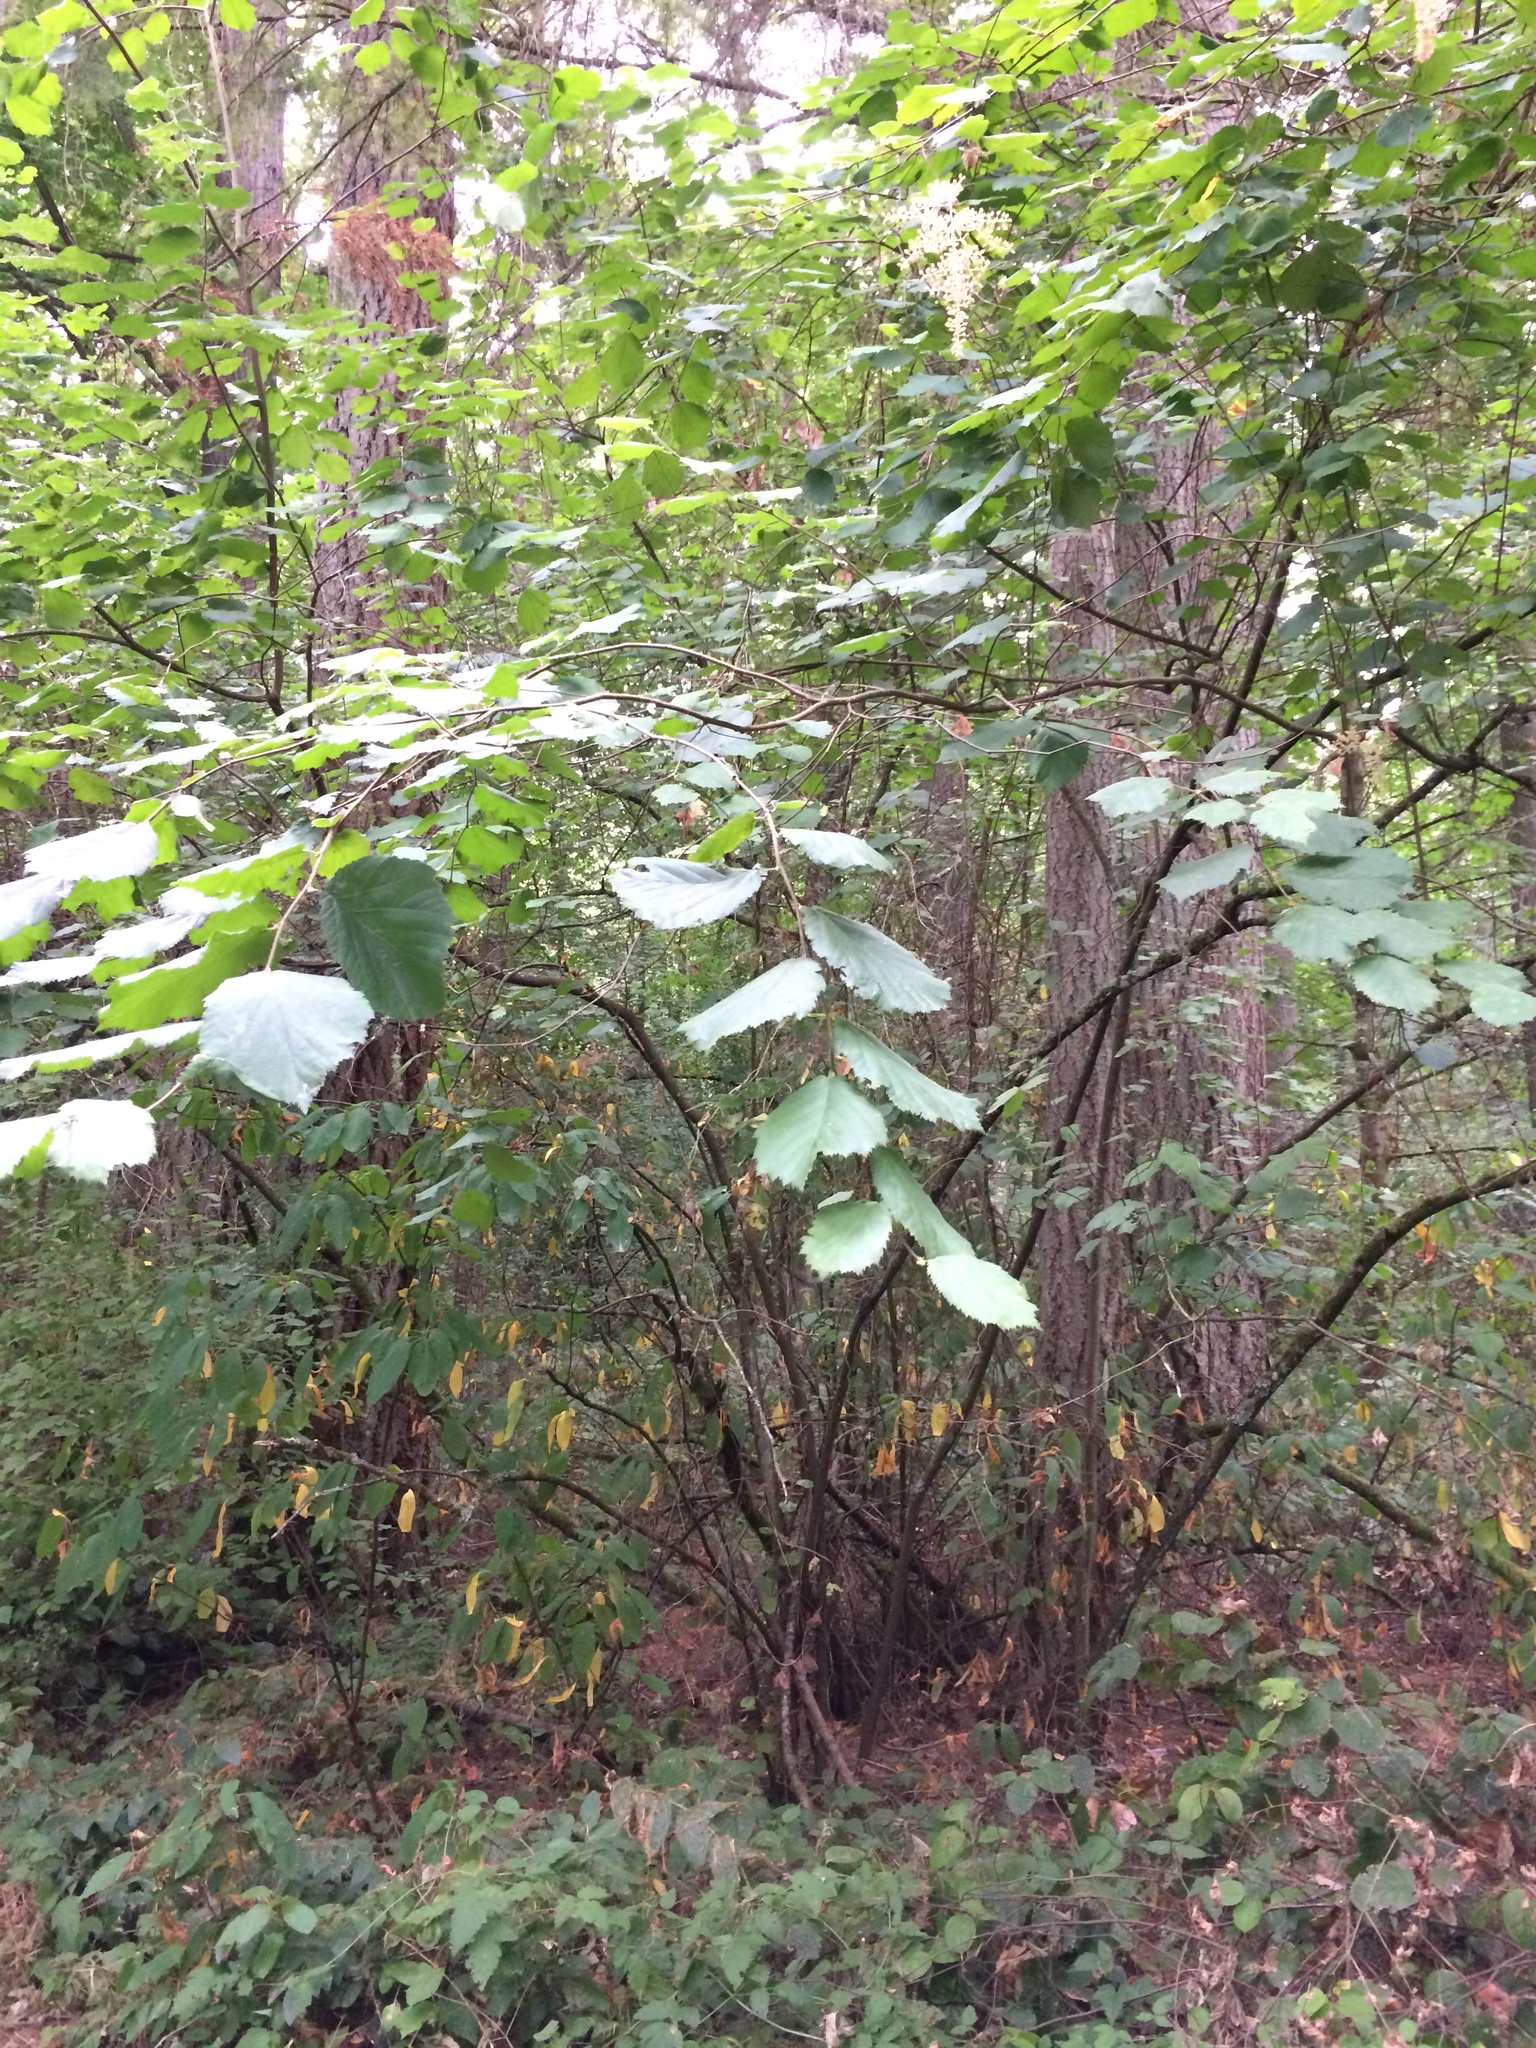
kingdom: Plantae
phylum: Tracheophyta
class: Magnoliopsida
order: Fagales
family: Betulaceae
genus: Corylus
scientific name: Corylus cornuta
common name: Beaked hazel
